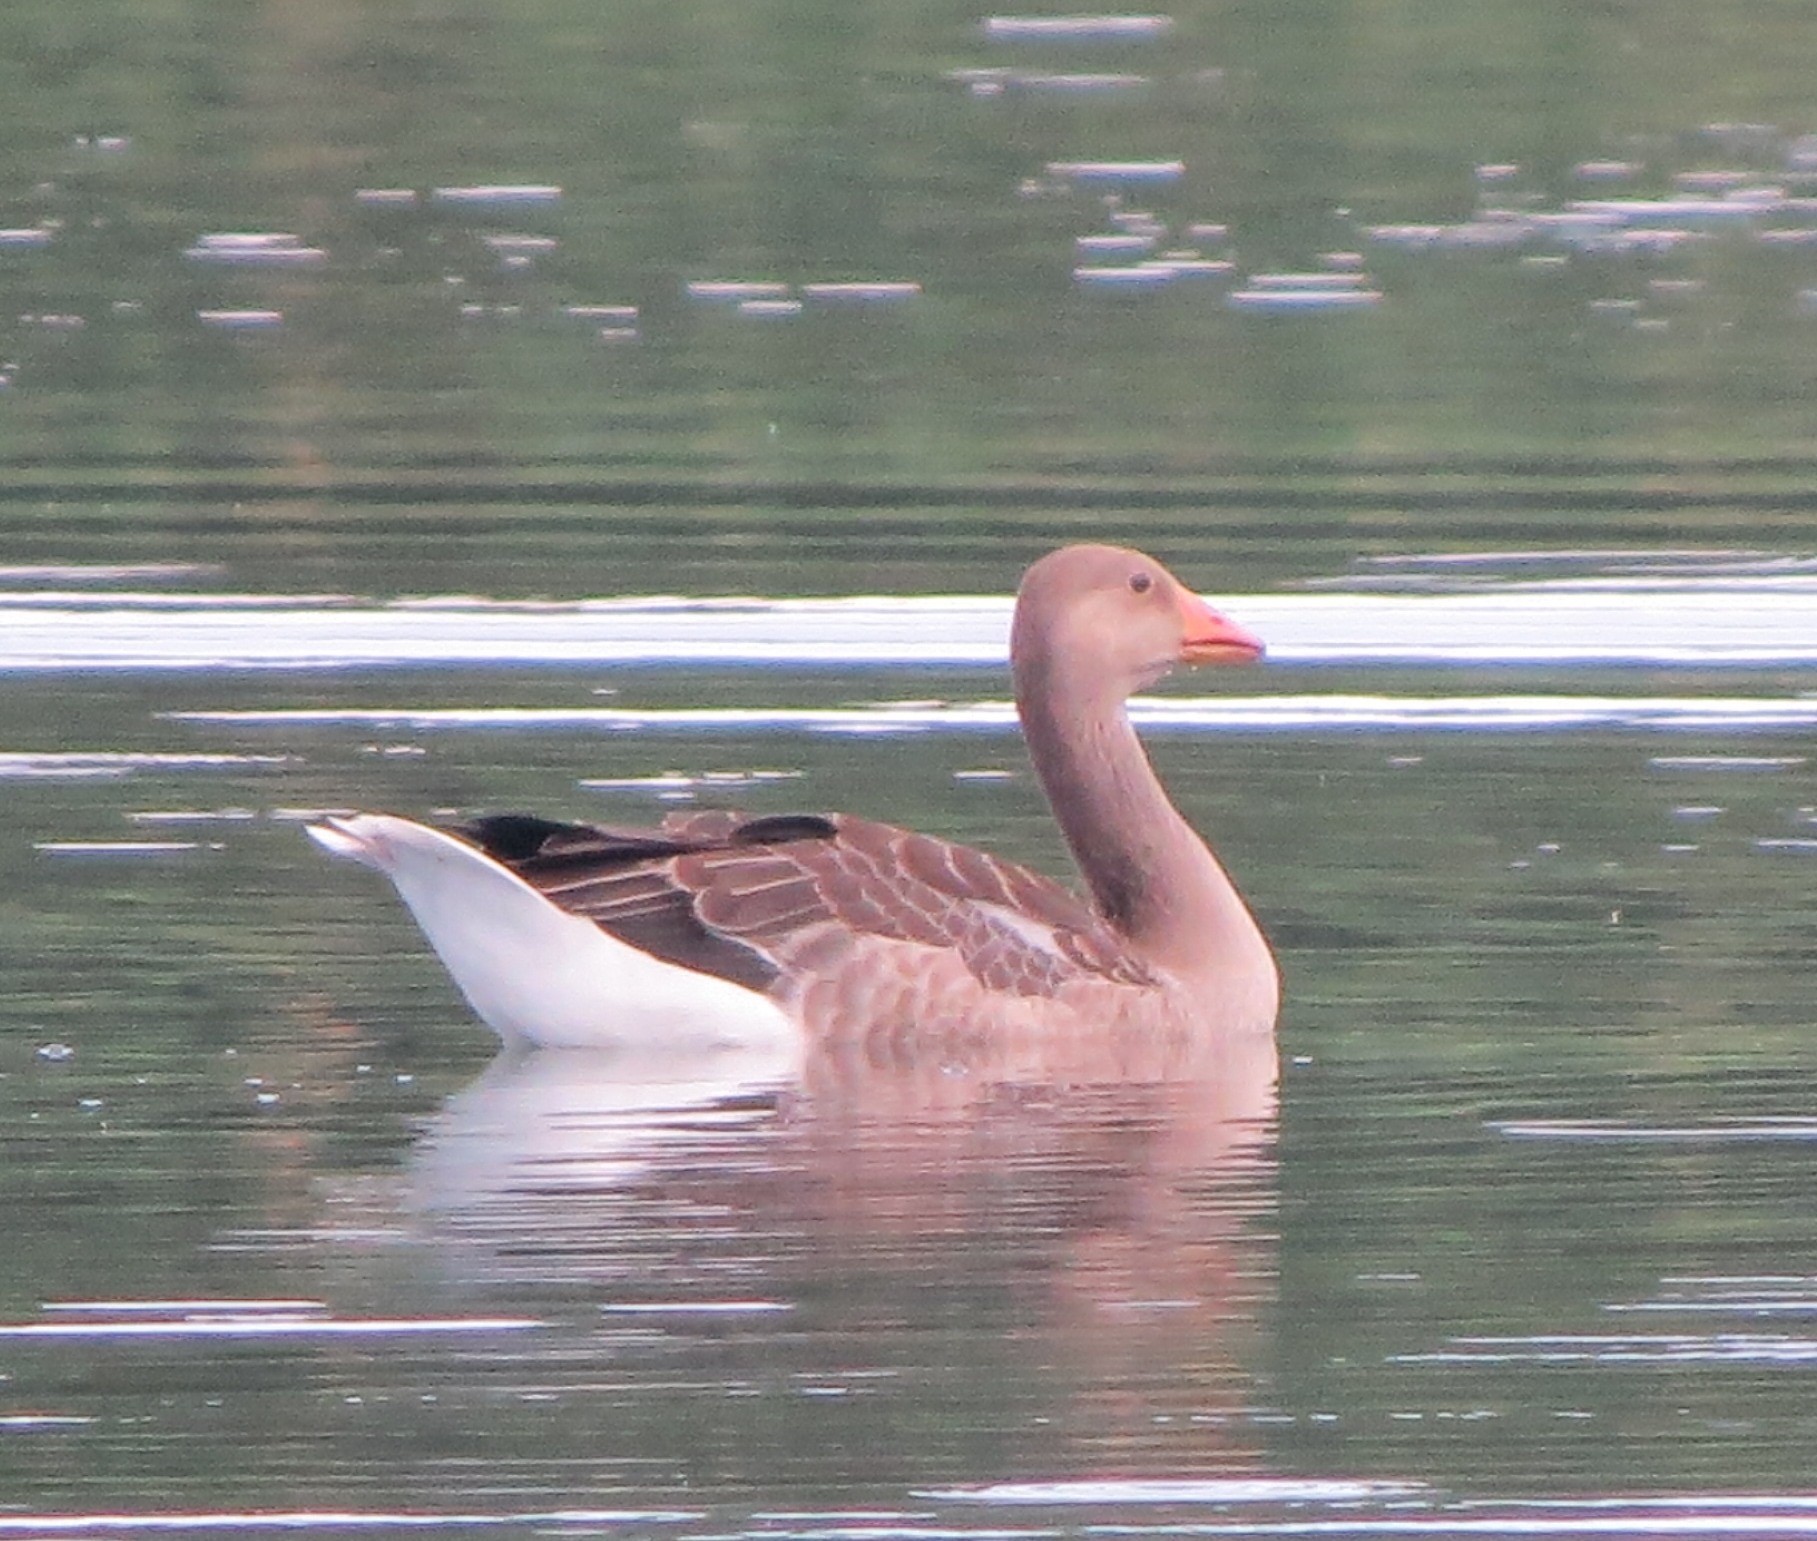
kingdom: Animalia
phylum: Chordata
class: Aves
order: Anseriformes
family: Anatidae
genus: Anser
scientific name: Anser anser
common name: Greylag goose
